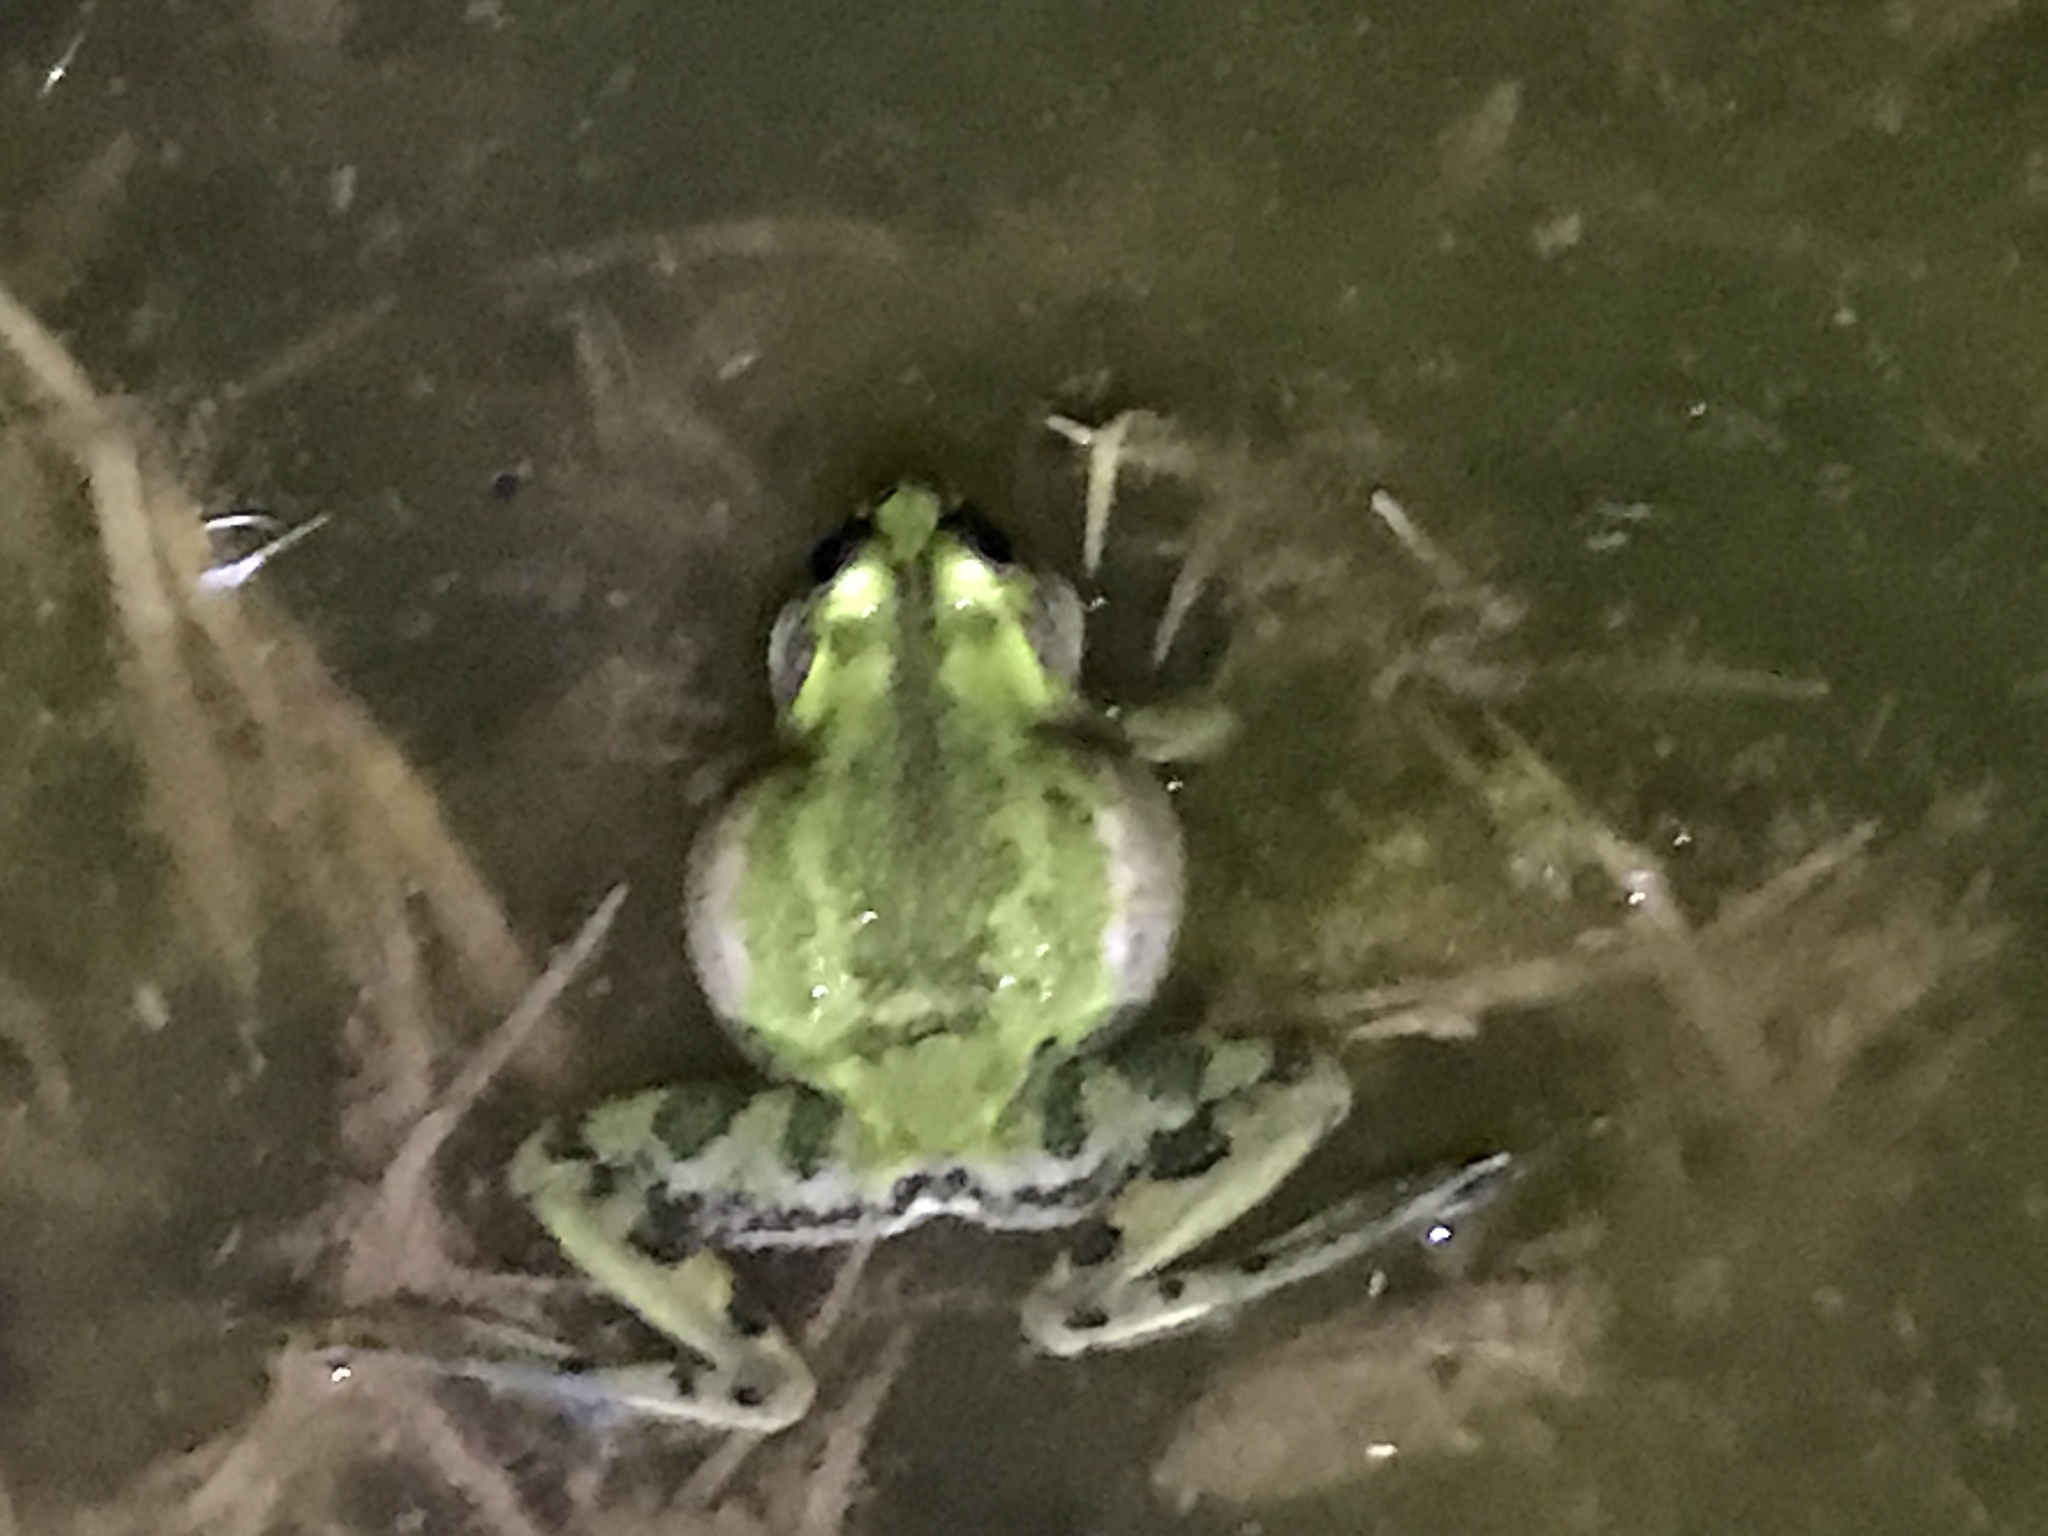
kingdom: Animalia
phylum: Chordata
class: Amphibia
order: Anura
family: Hylidae
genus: Pseudis
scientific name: Pseudis minuta
